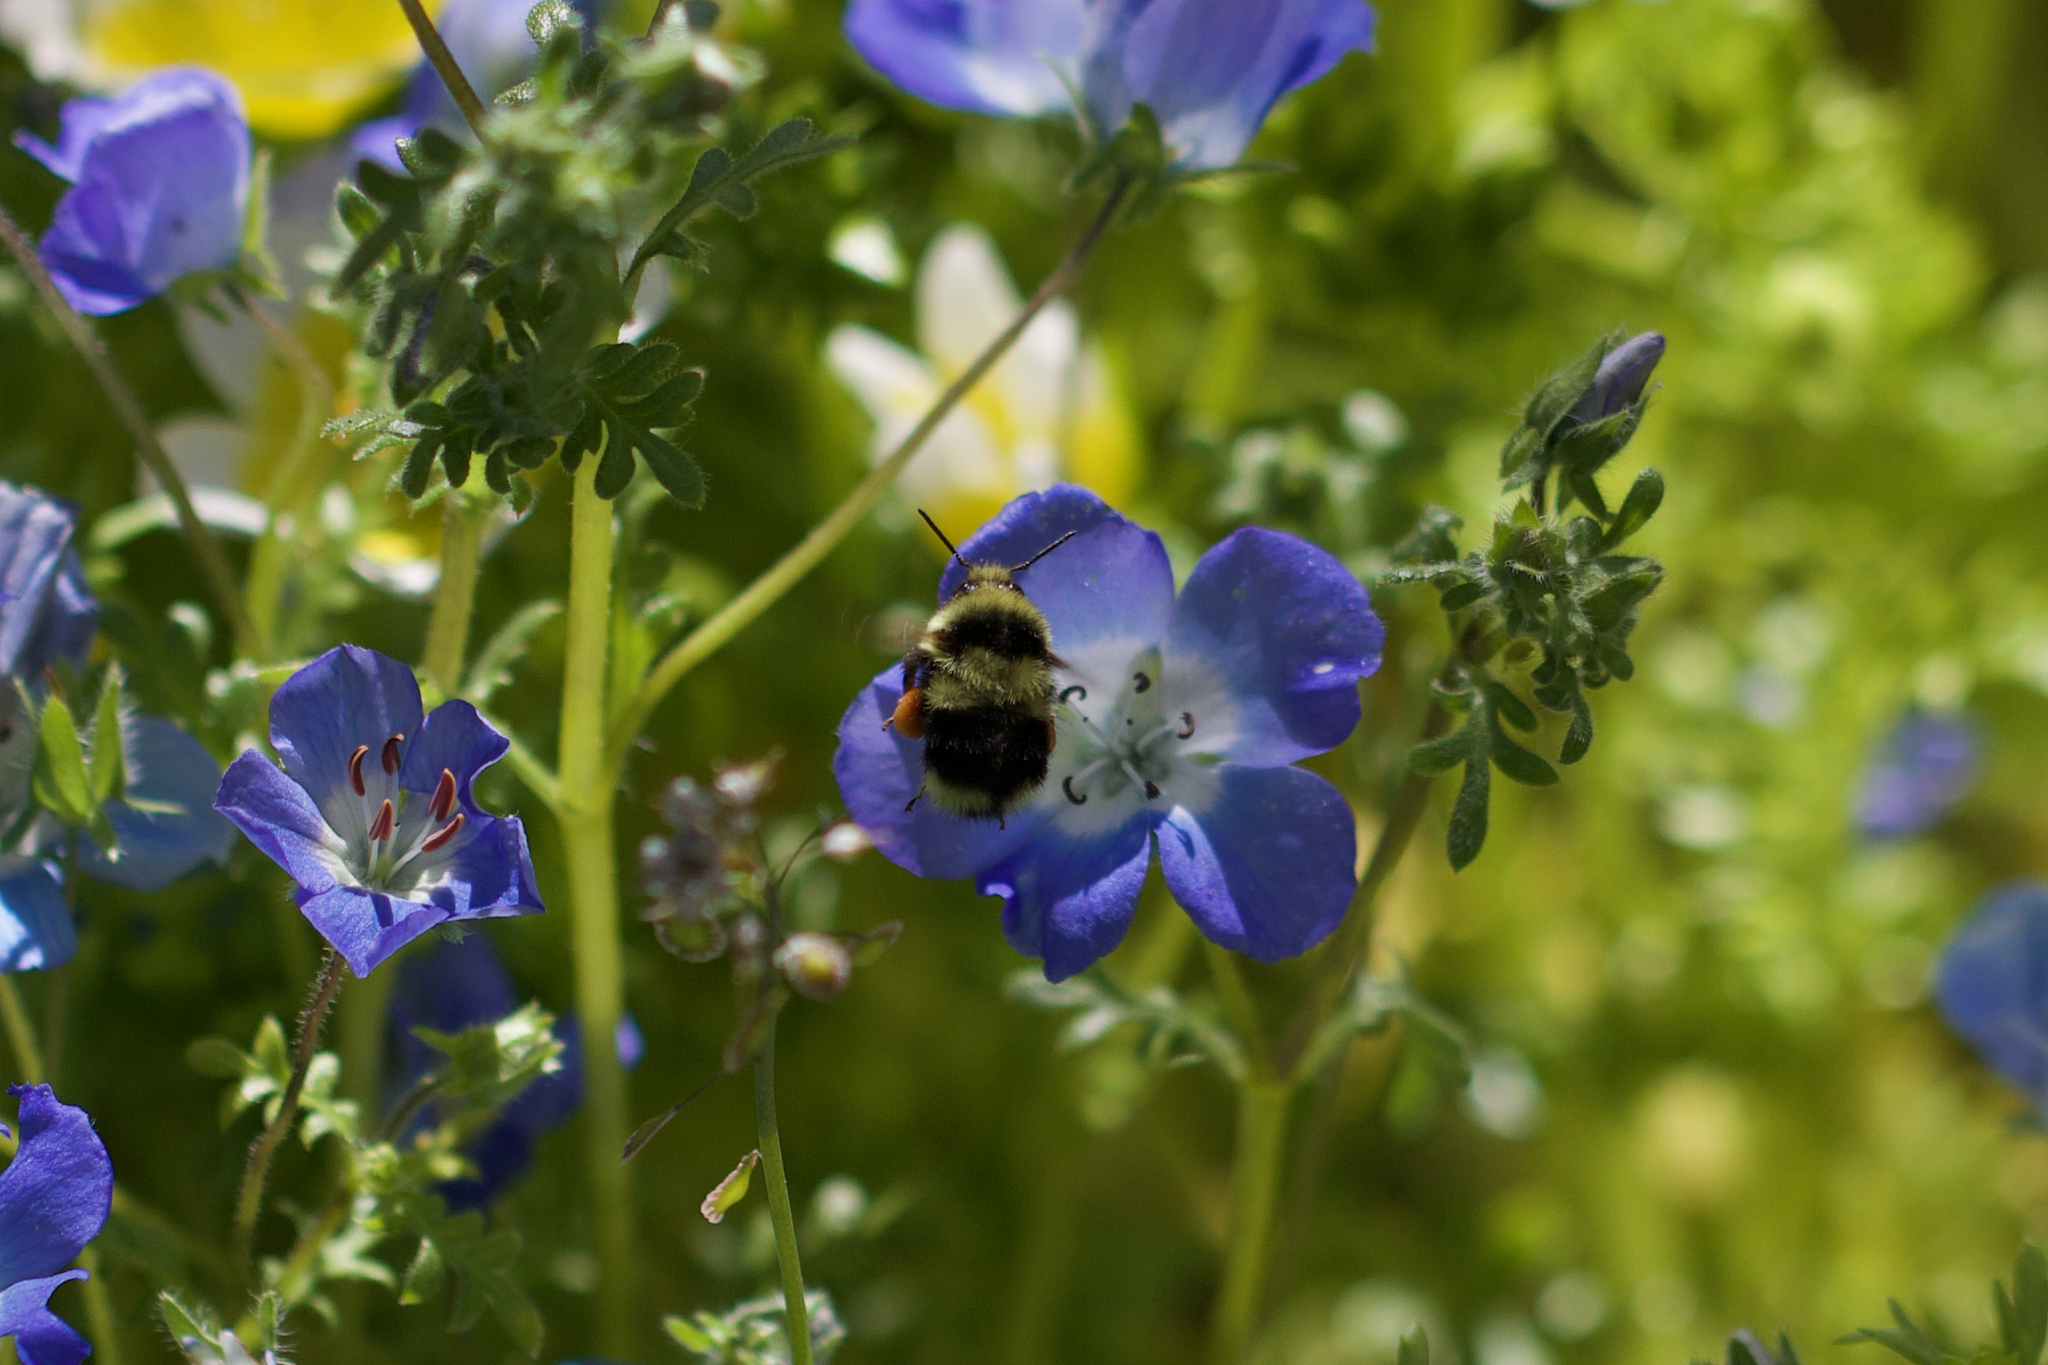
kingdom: Animalia
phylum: Arthropoda
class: Insecta
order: Hymenoptera
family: Apidae
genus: Bombus
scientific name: Bombus melanopygus
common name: Black tail bumble bee
